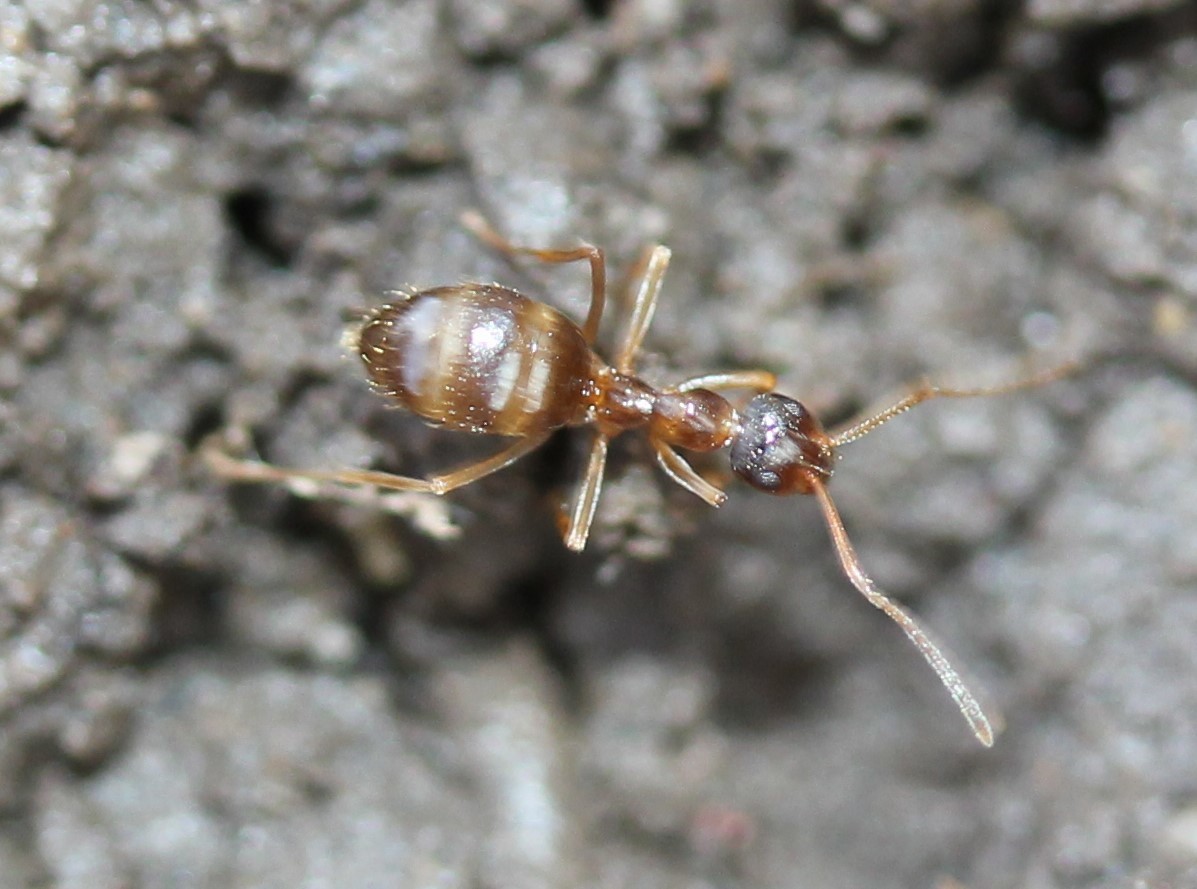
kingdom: Animalia
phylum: Arthropoda
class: Insecta
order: Hymenoptera
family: Formicidae
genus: Prenolepis
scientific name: Prenolepis imparis
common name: Small honey ant
